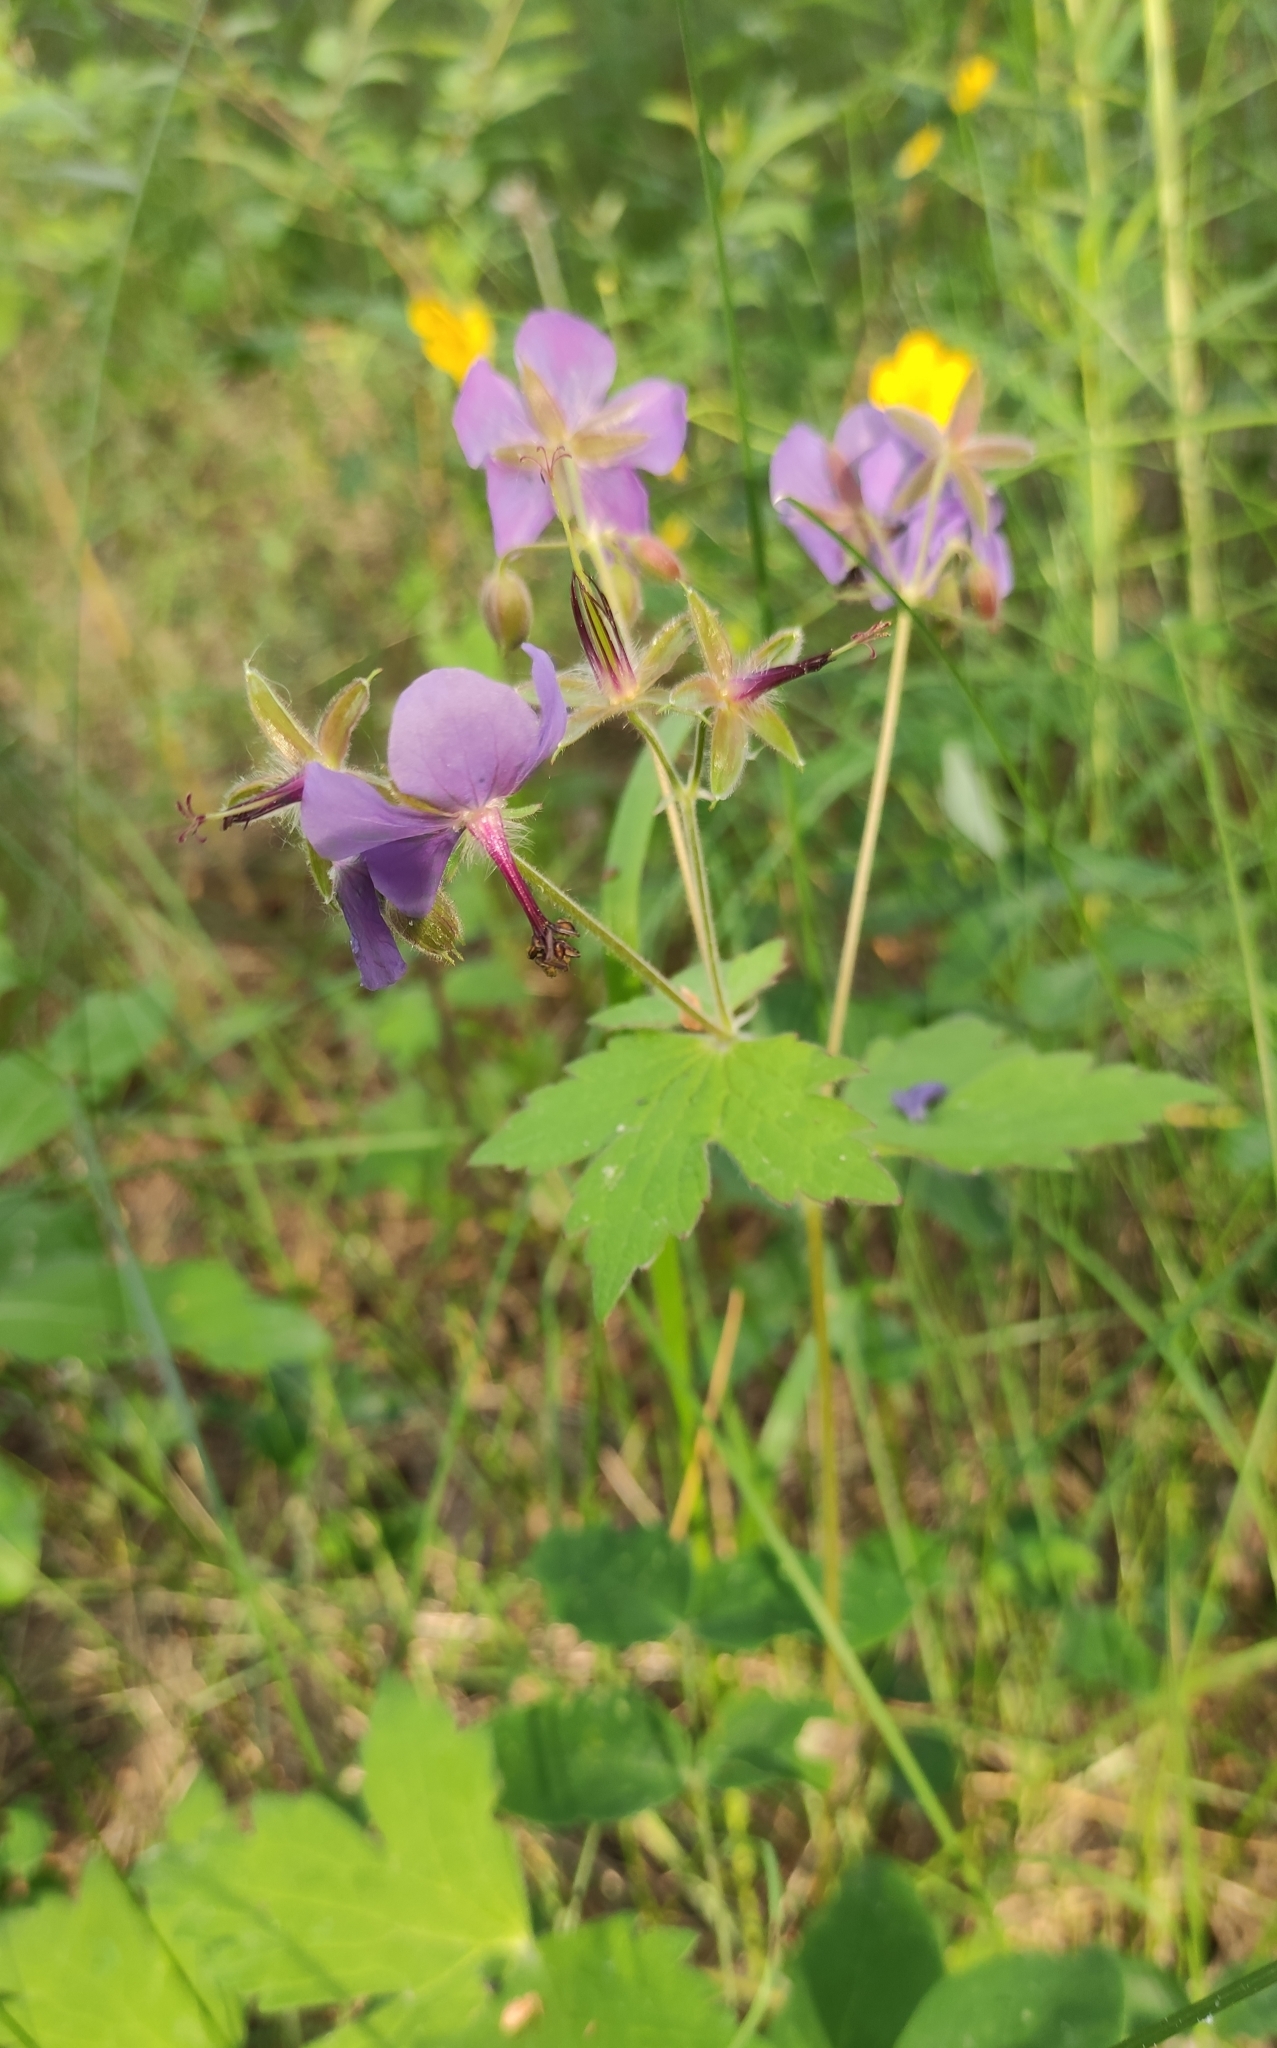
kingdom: Plantae
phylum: Tracheophyta
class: Magnoliopsida
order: Geraniales
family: Geraniaceae
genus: Geranium
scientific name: Geranium platyanthum
